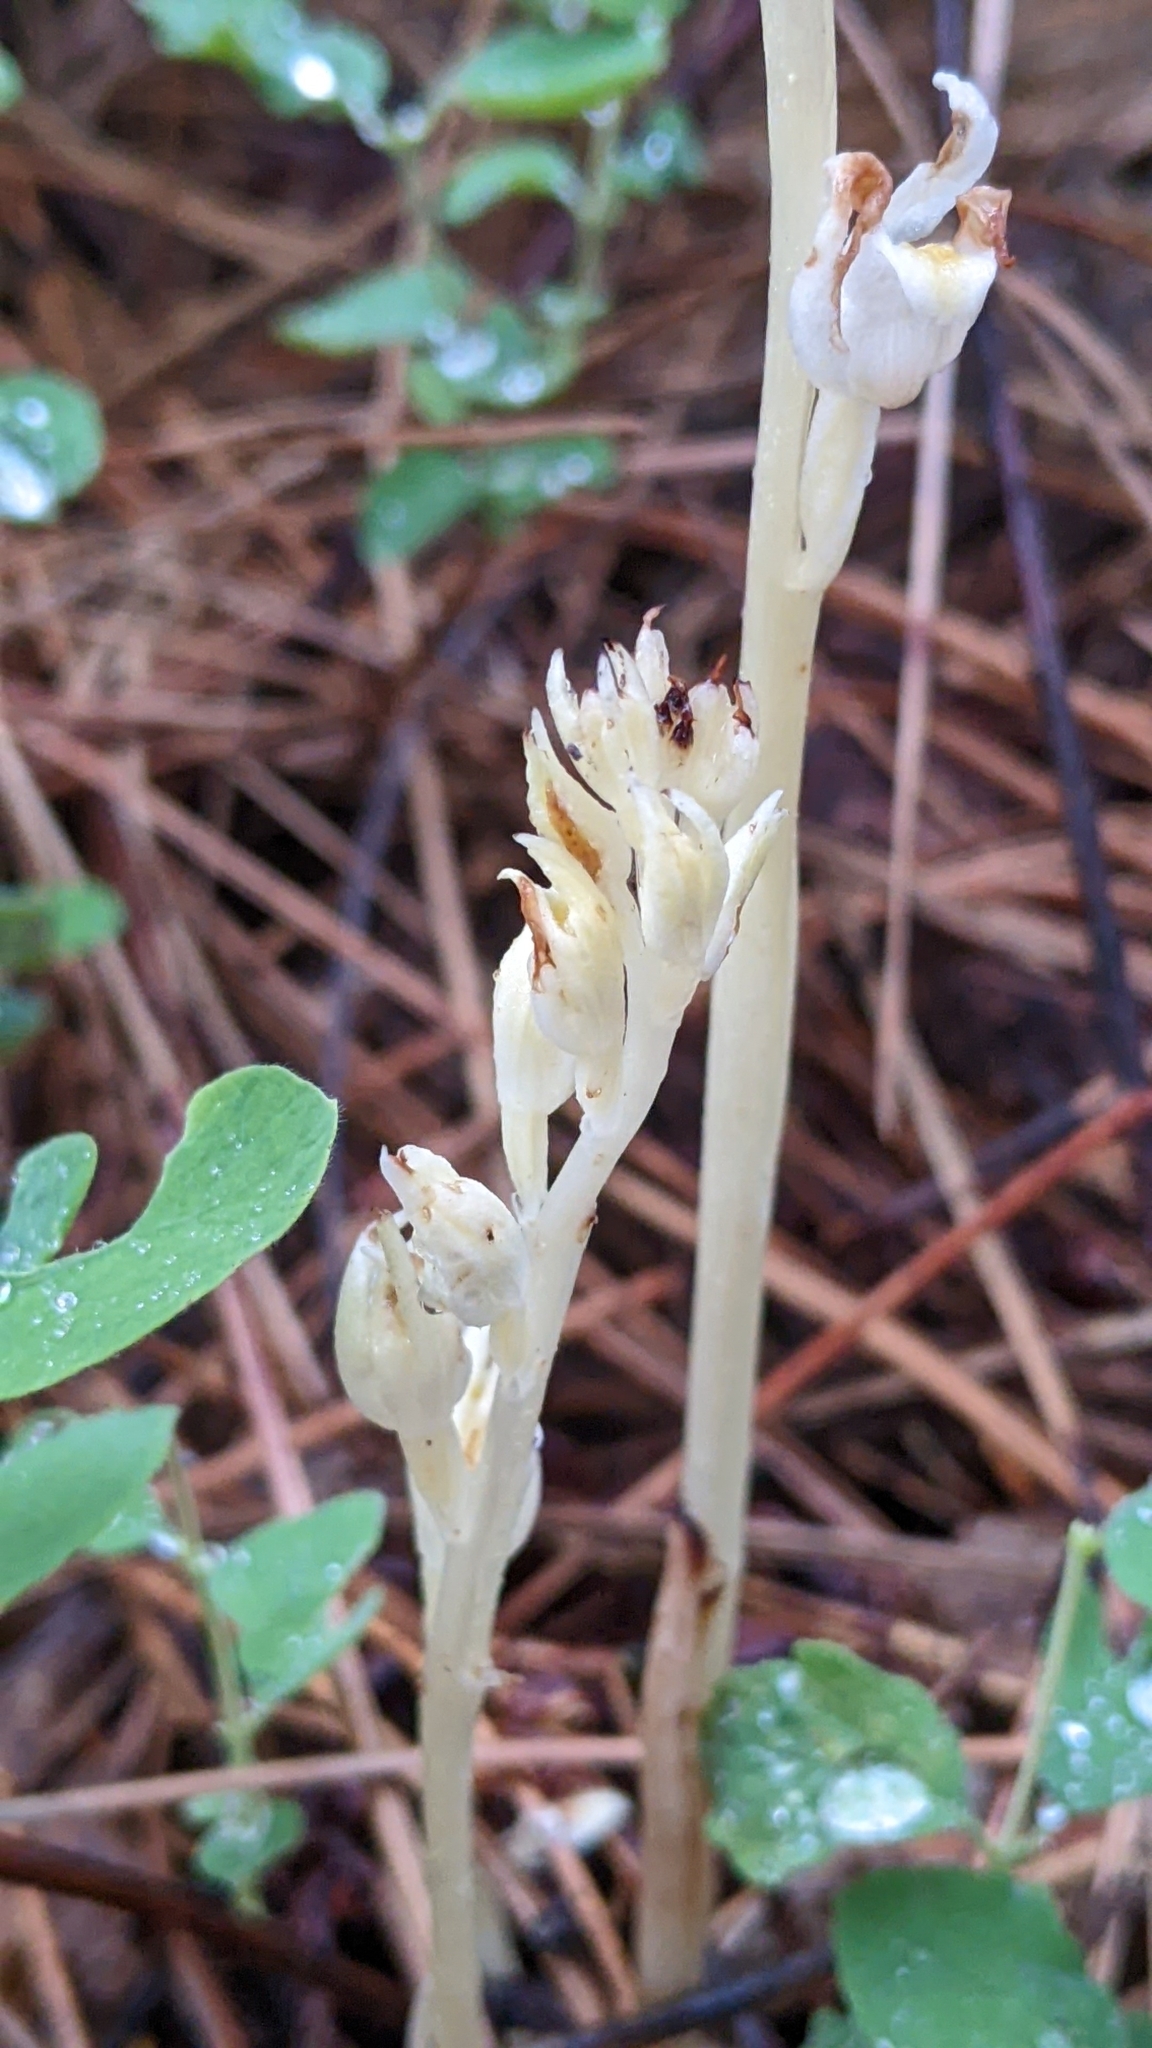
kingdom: Plantae
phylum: Tracheophyta
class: Liliopsida
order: Asparagales
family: Orchidaceae
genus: Cephalanthera
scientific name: Cephalanthera austiniae
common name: Phantom orchid
